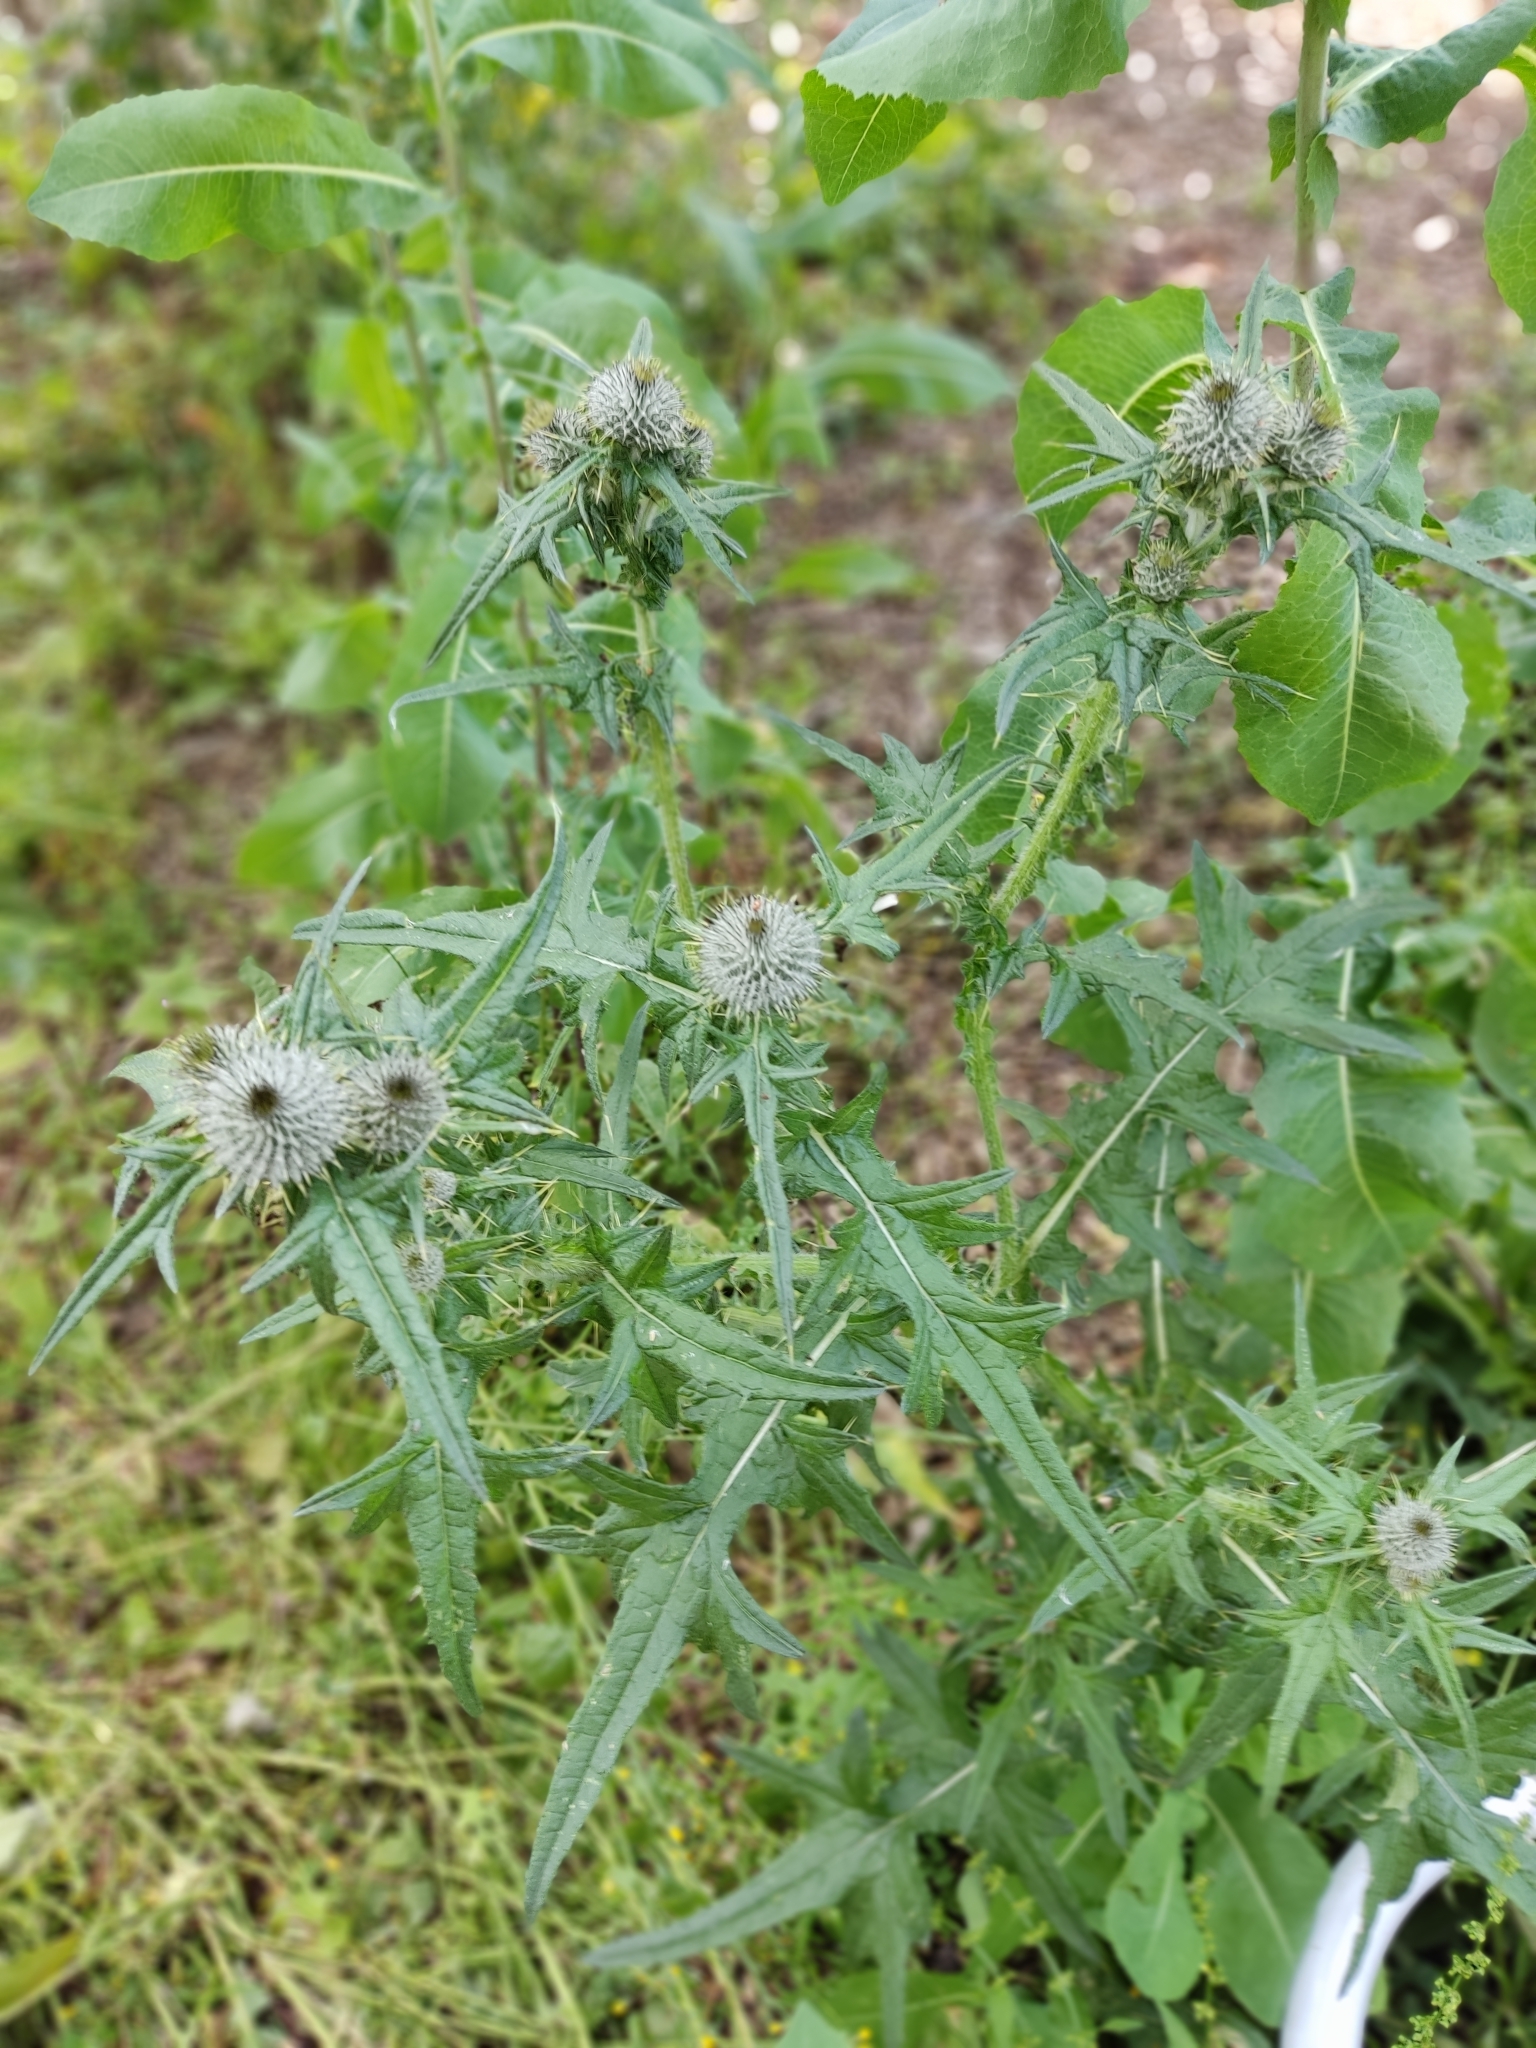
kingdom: Plantae
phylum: Tracheophyta
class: Magnoliopsida
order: Asterales
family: Asteraceae
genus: Cirsium
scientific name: Cirsium vulgare
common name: Bull thistle
